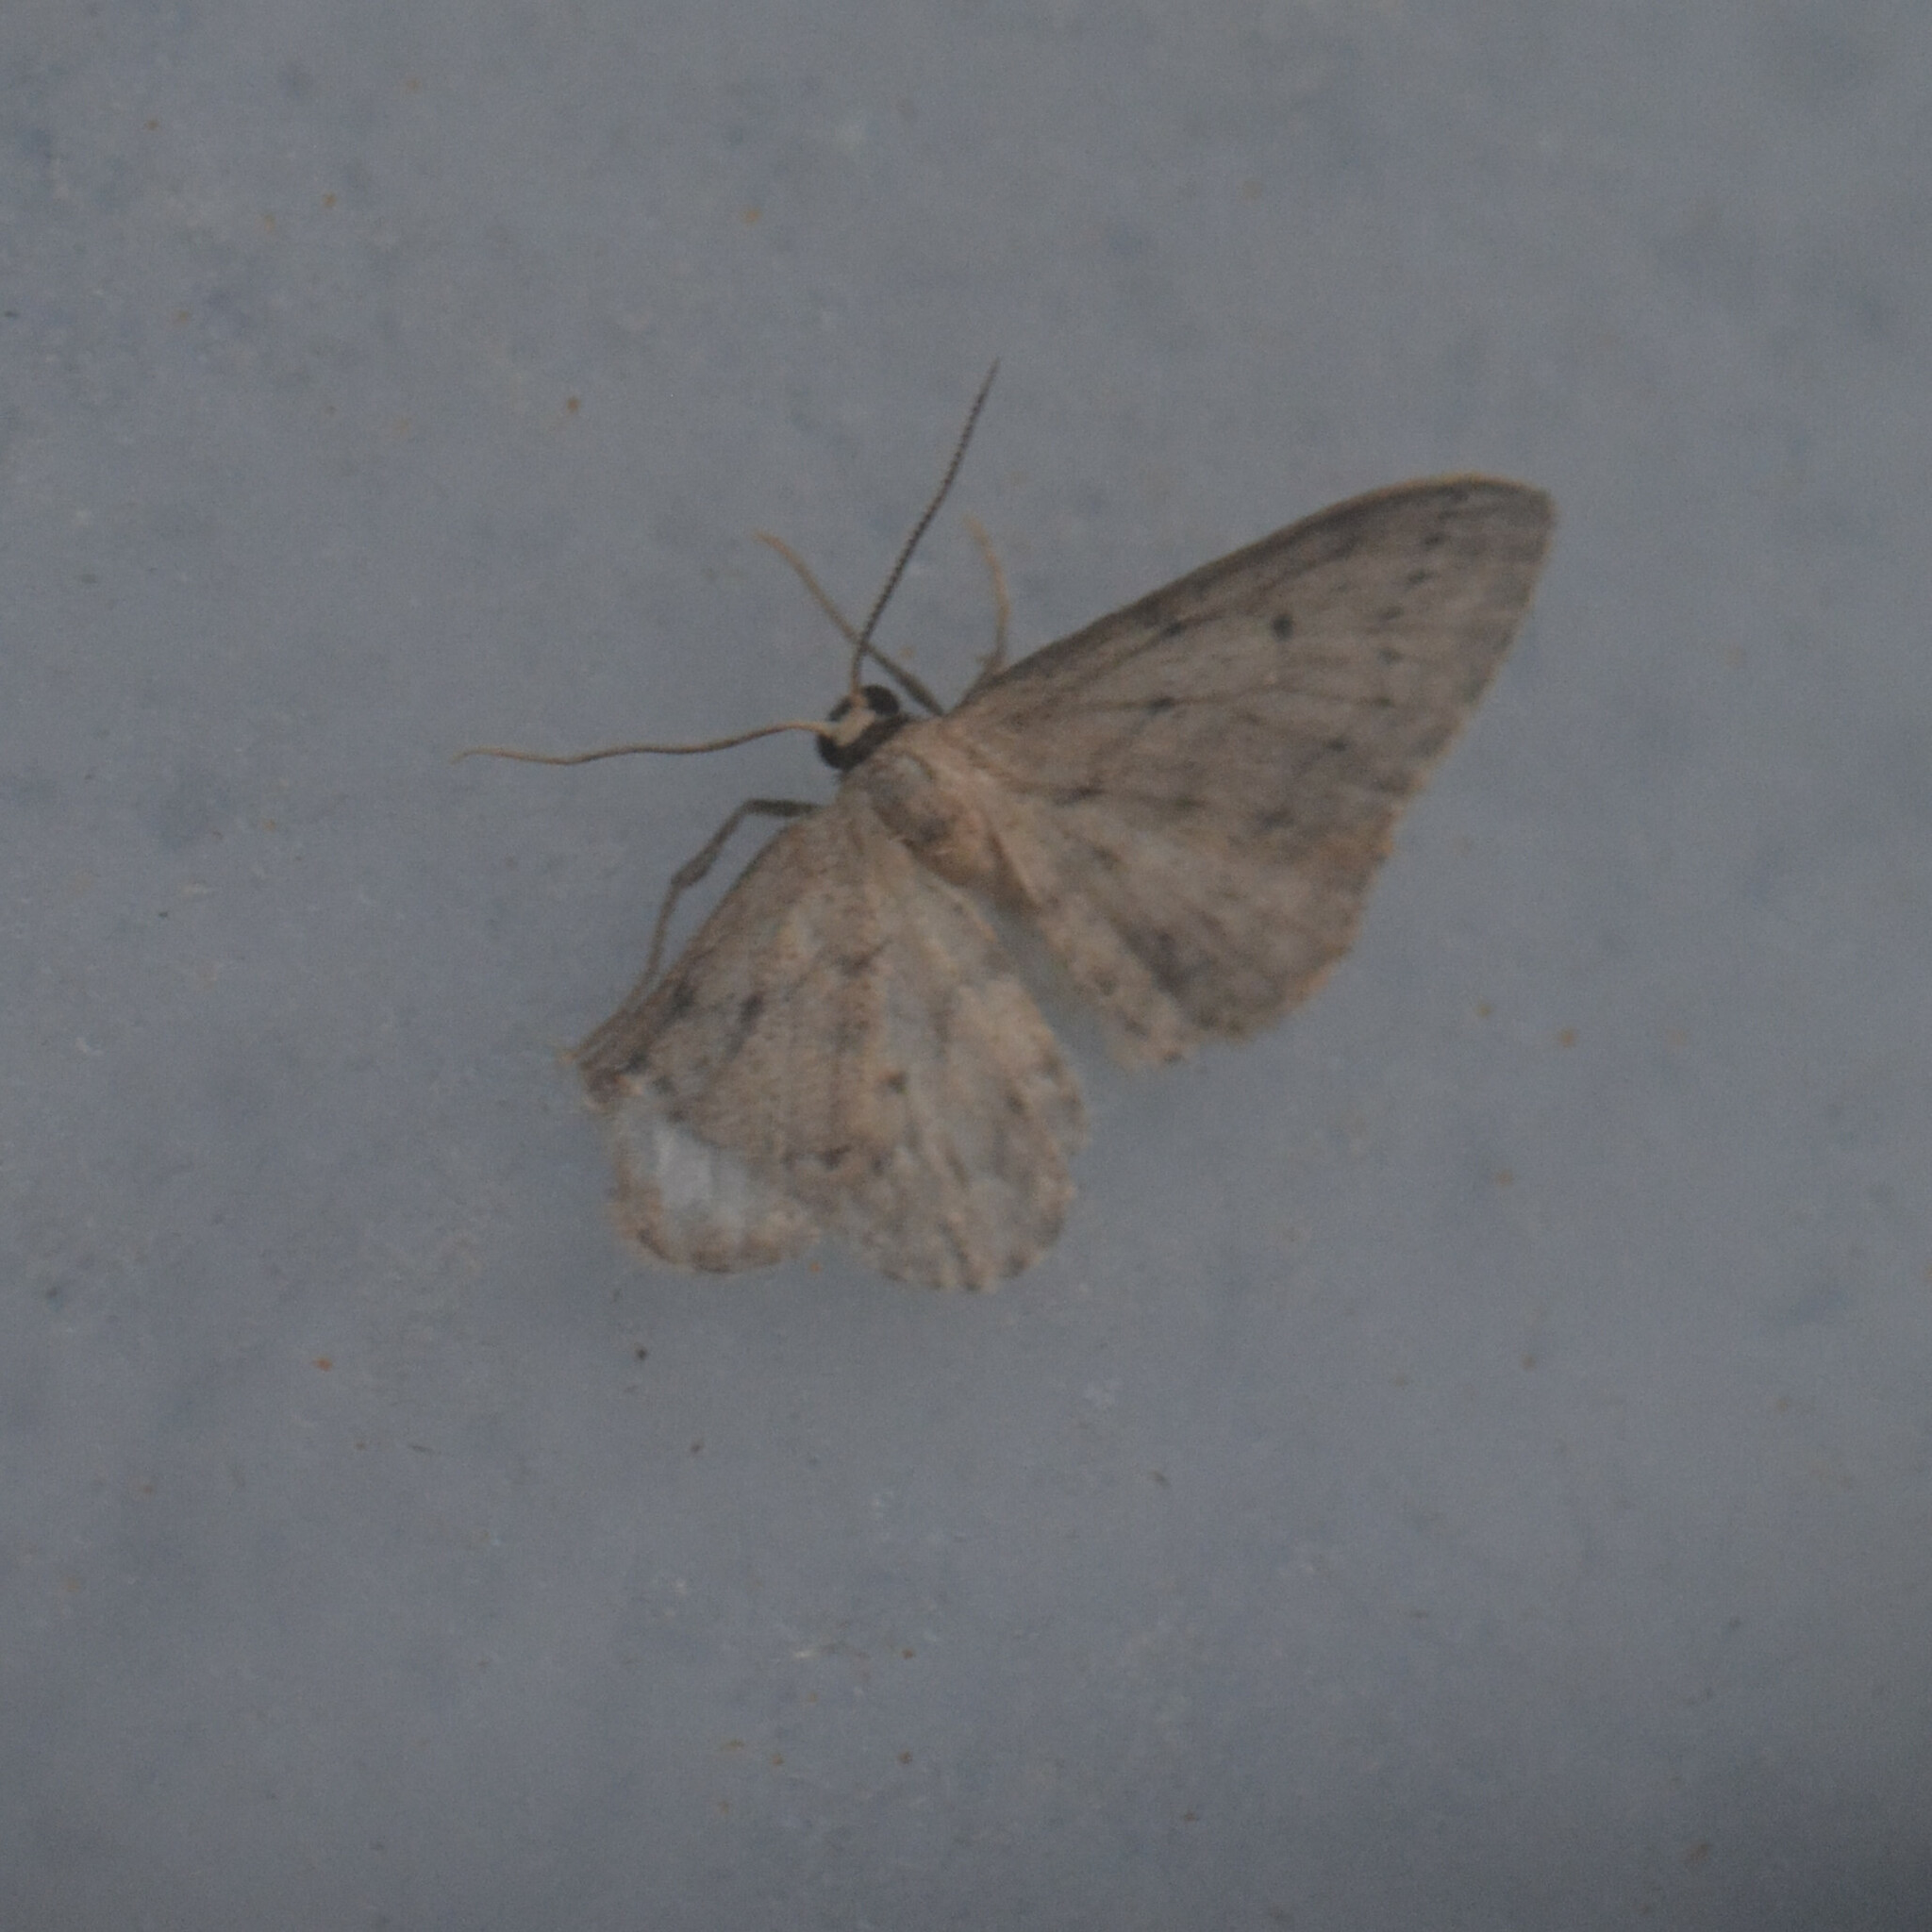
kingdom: Animalia
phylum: Arthropoda
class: Insecta
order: Lepidoptera
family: Geometridae
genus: Idaea
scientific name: Idaea seriata
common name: Small dusty wave
